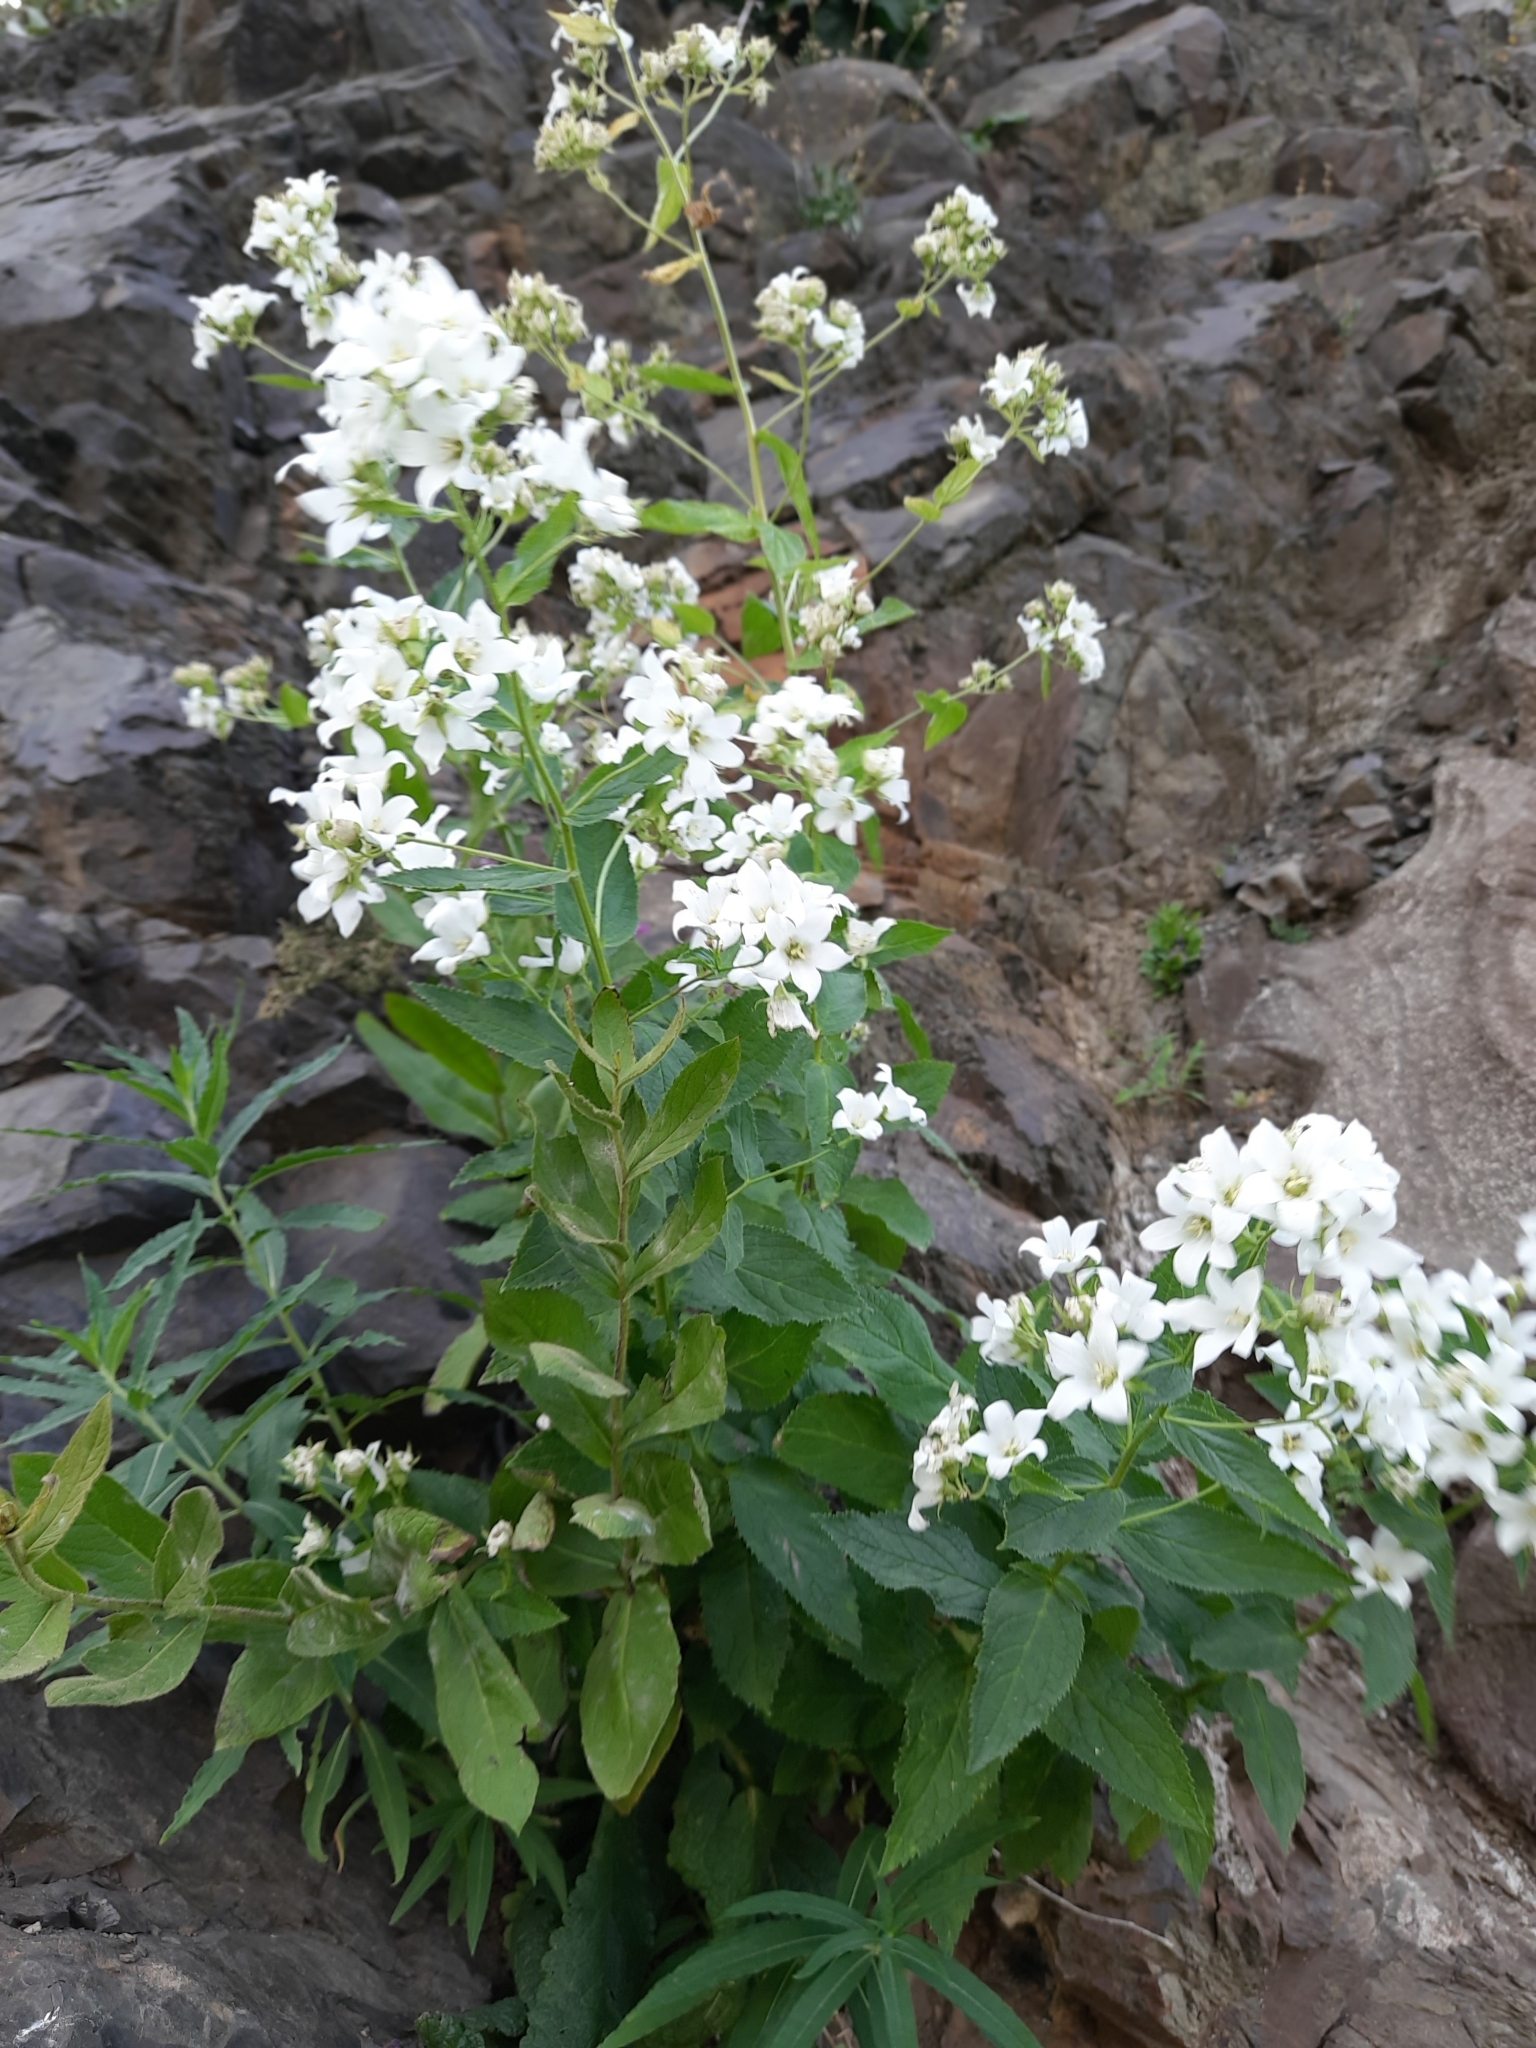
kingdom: Plantae
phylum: Tracheophyta
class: Magnoliopsida
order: Brassicales
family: Brassicaceae
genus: Arabis
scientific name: Arabis caucasica
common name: Gray rockcress
